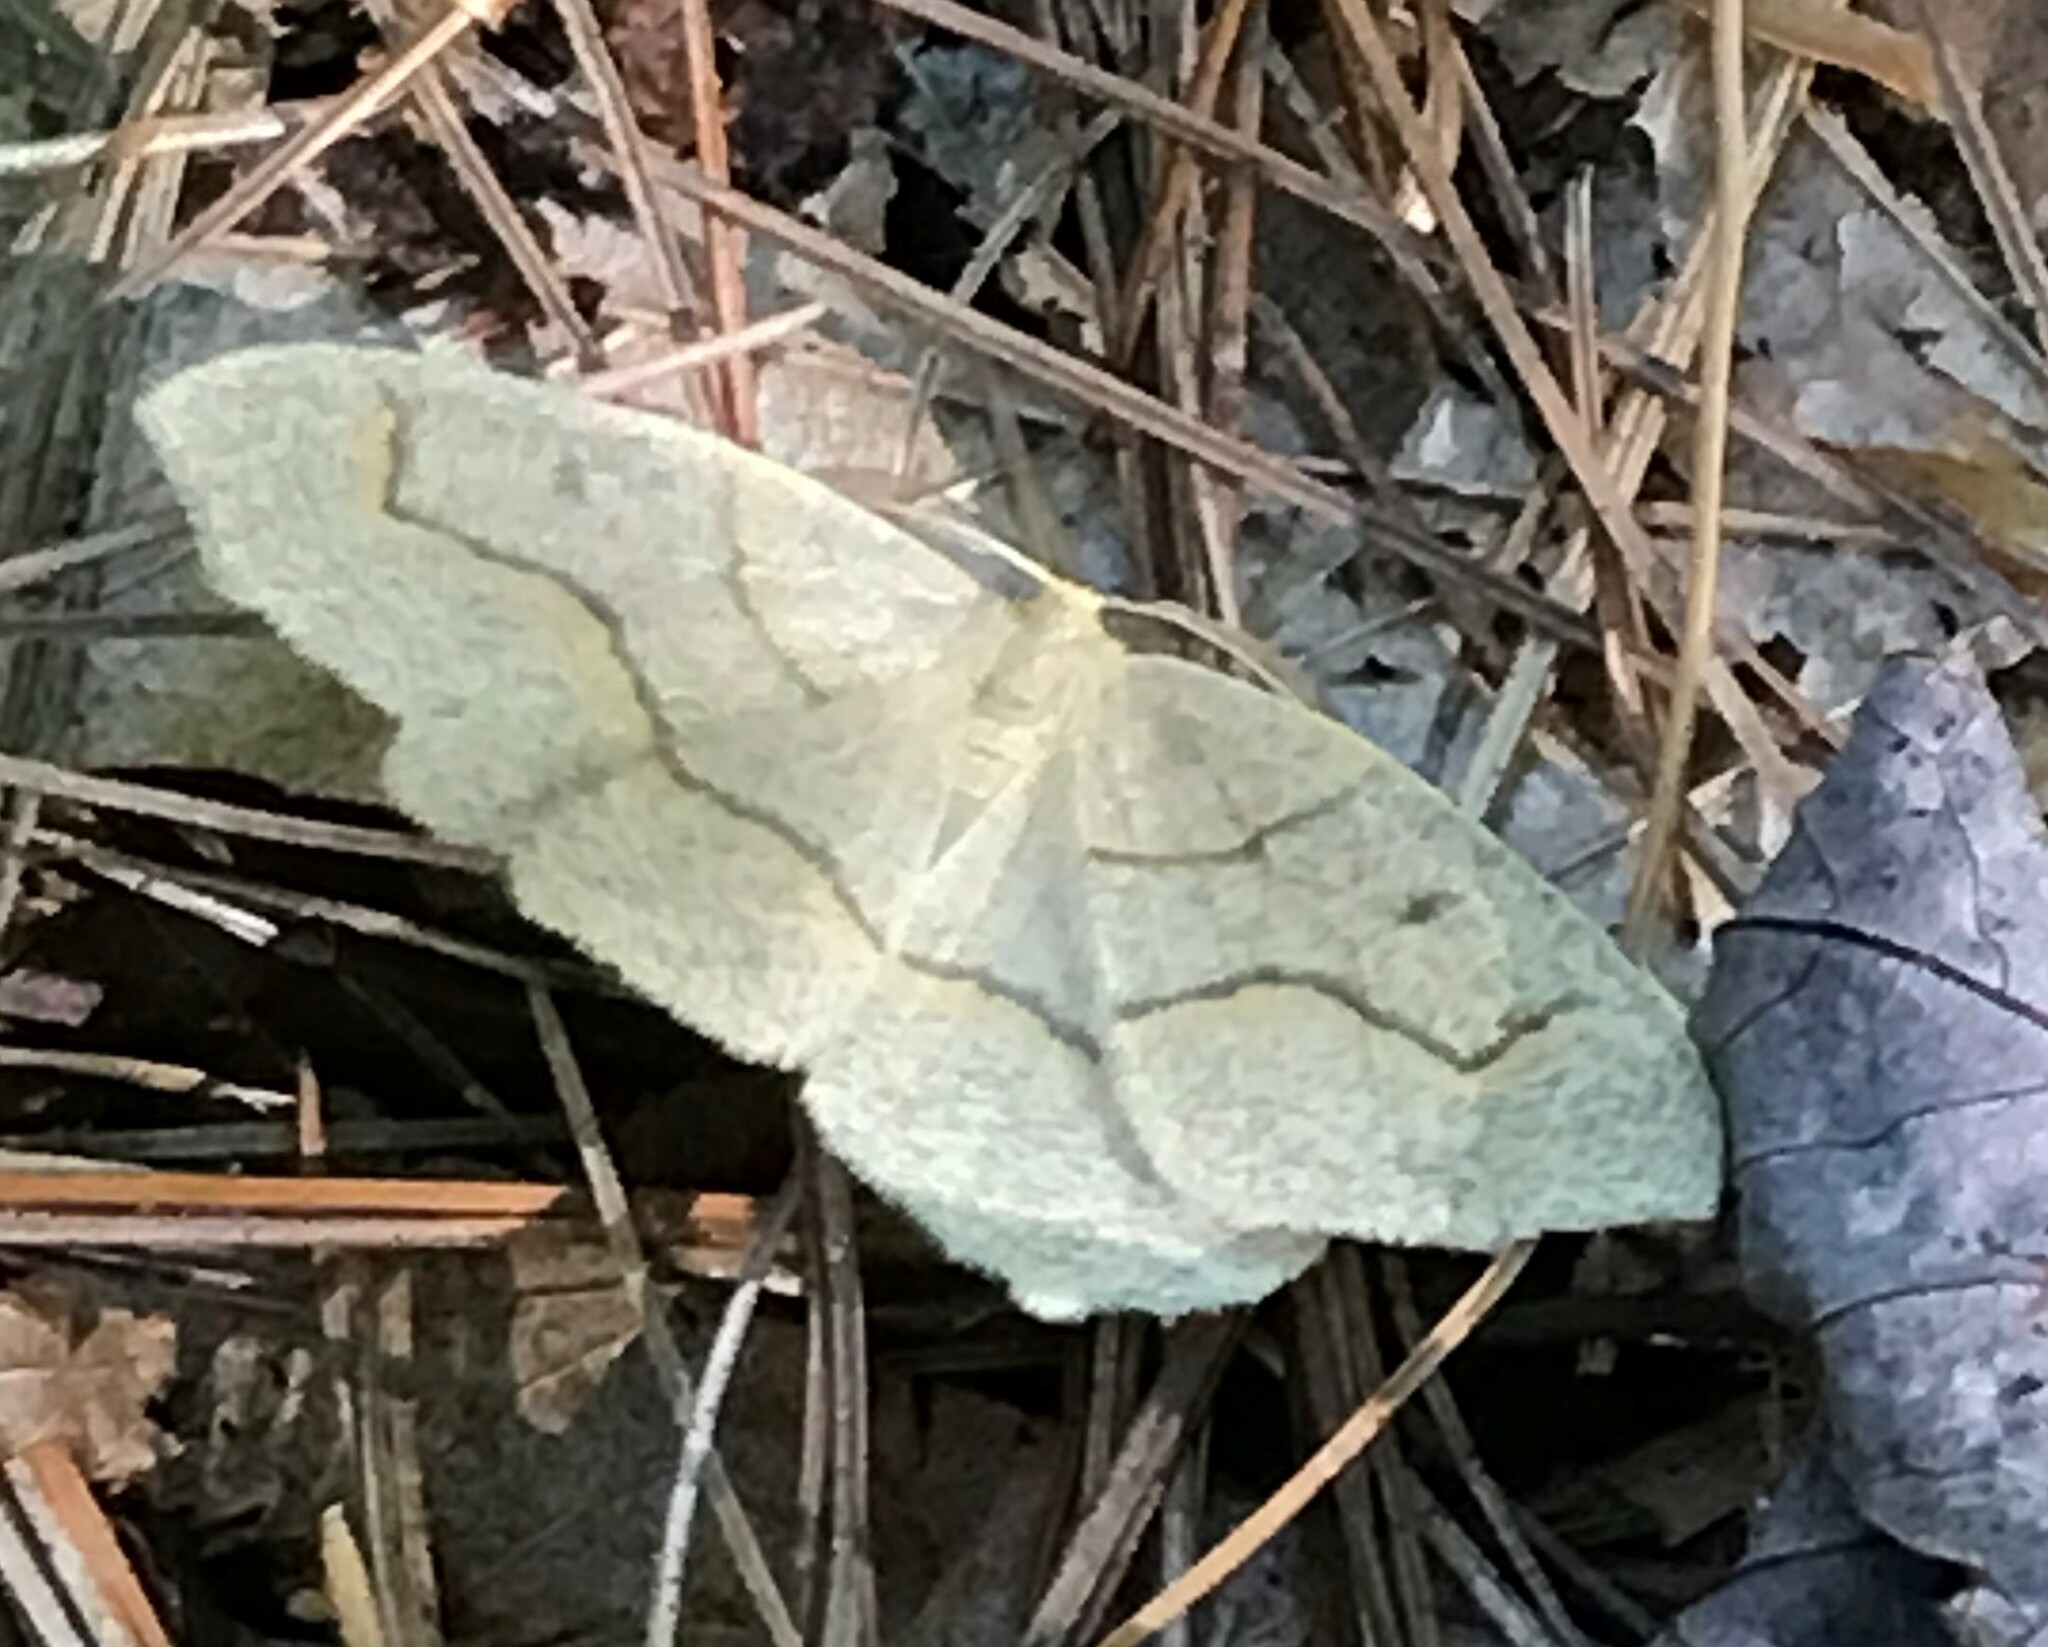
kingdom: Animalia
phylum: Arthropoda
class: Insecta
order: Lepidoptera
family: Geometridae
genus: Lambdina
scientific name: Lambdina fiscellaria
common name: Hemlock looper
